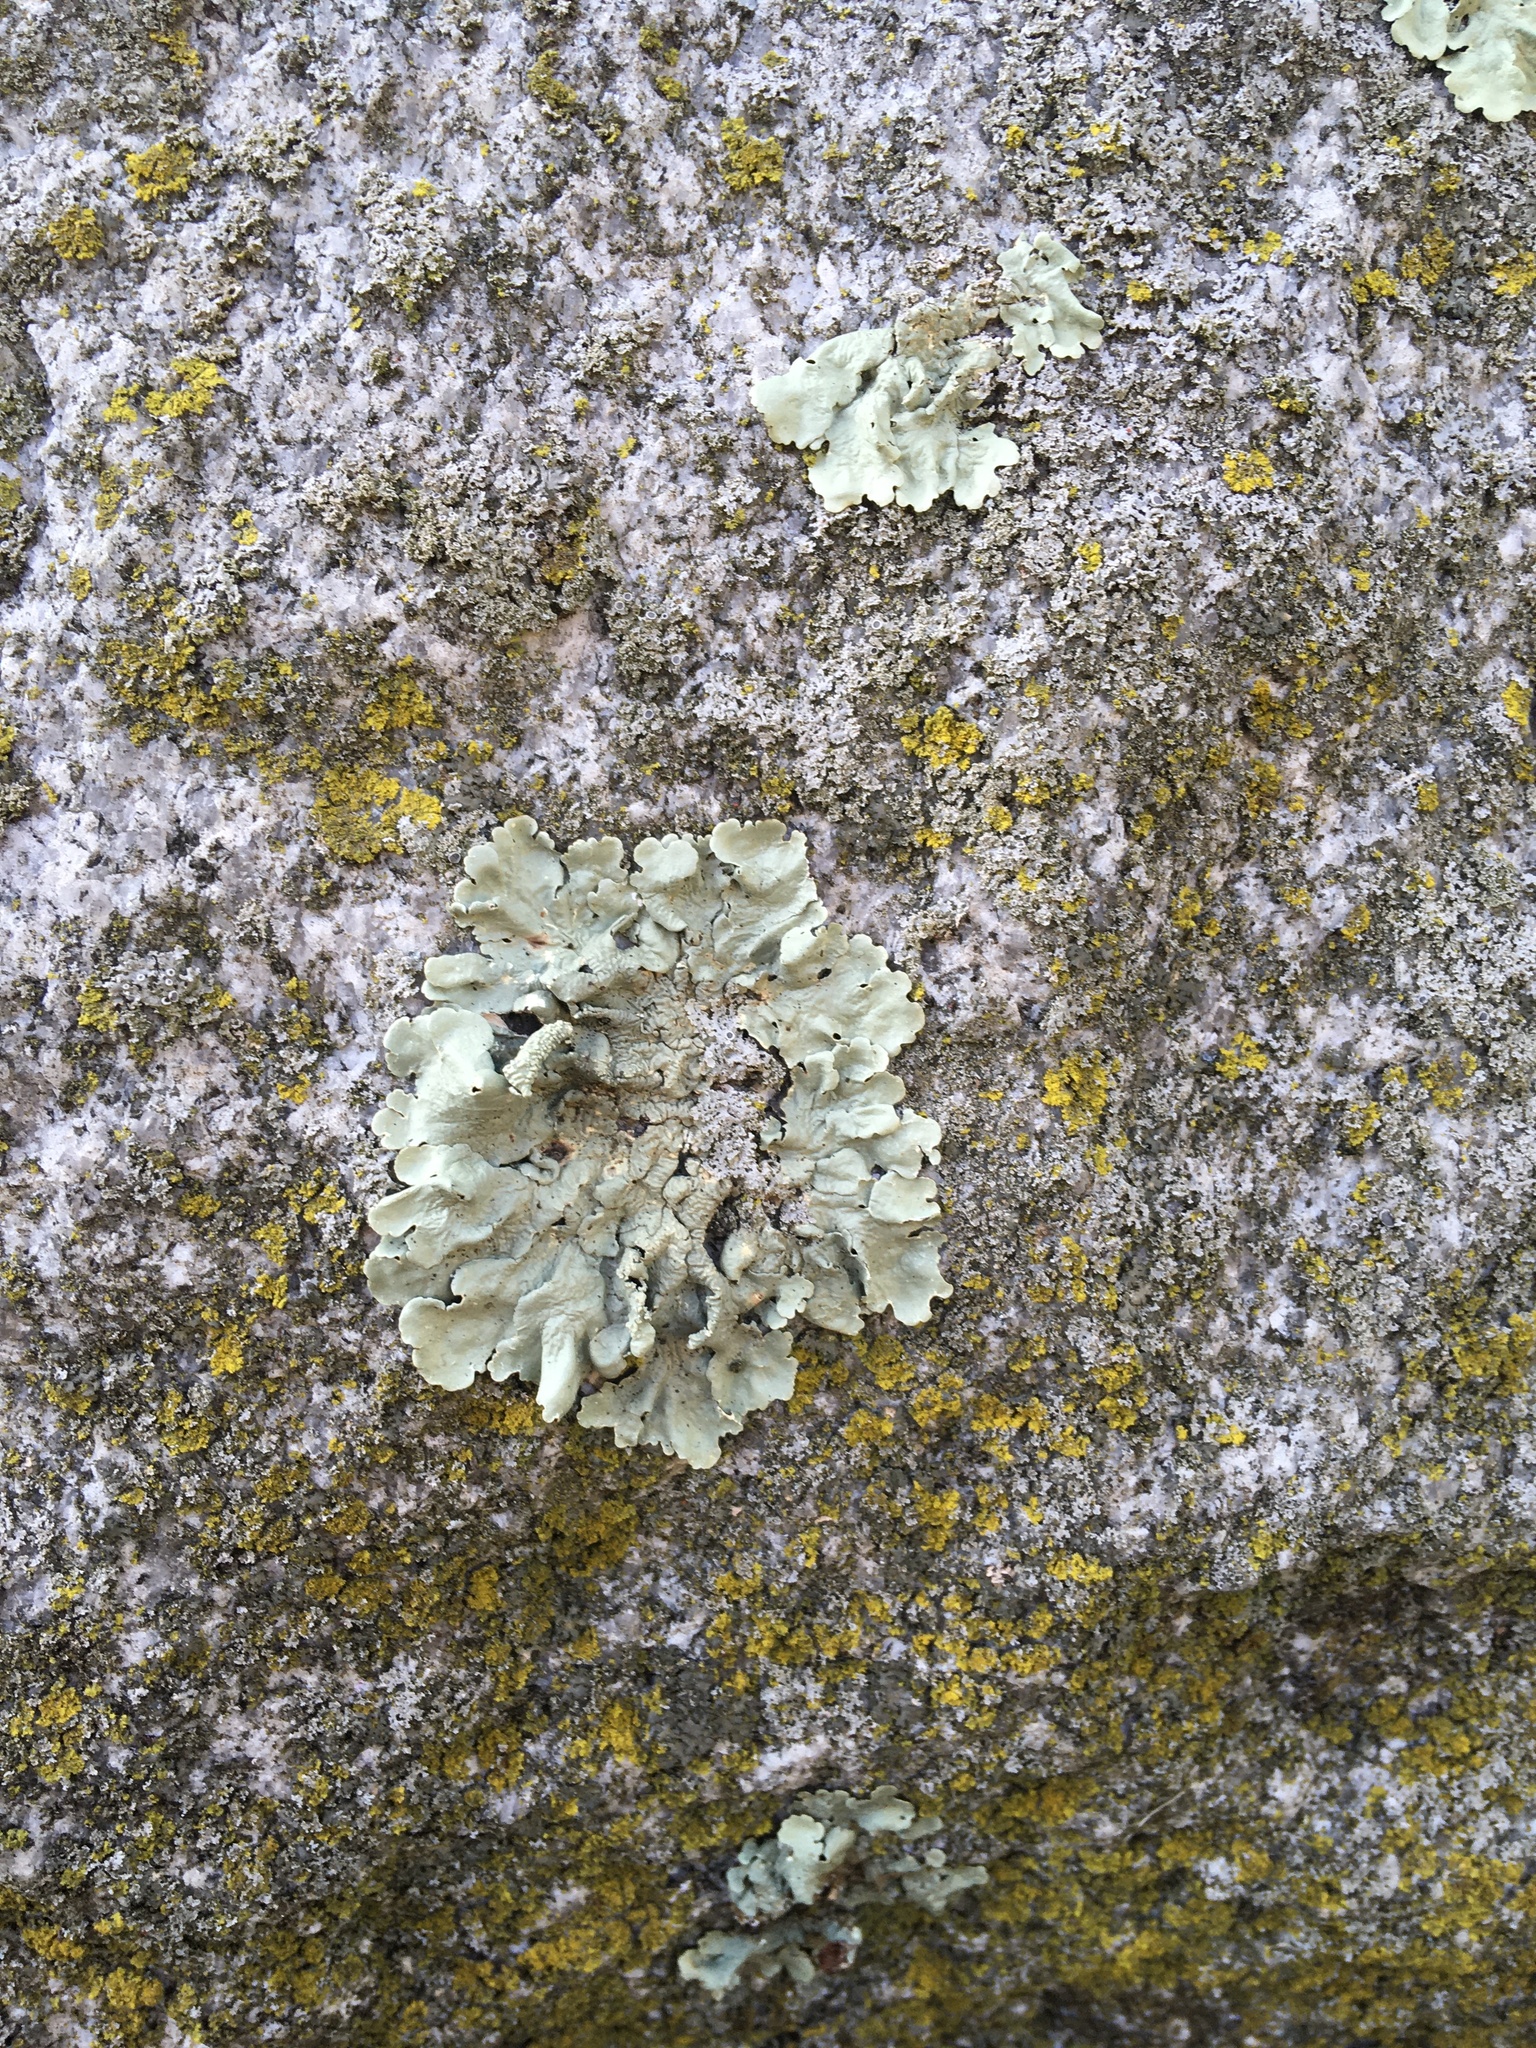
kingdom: Fungi
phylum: Ascomycota
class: Lecanoromycetes
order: Lecanorales
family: Parmeliaceae
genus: Flavoparmelia
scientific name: Flavoparmelia caperata
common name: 40-mile per hour lichen
